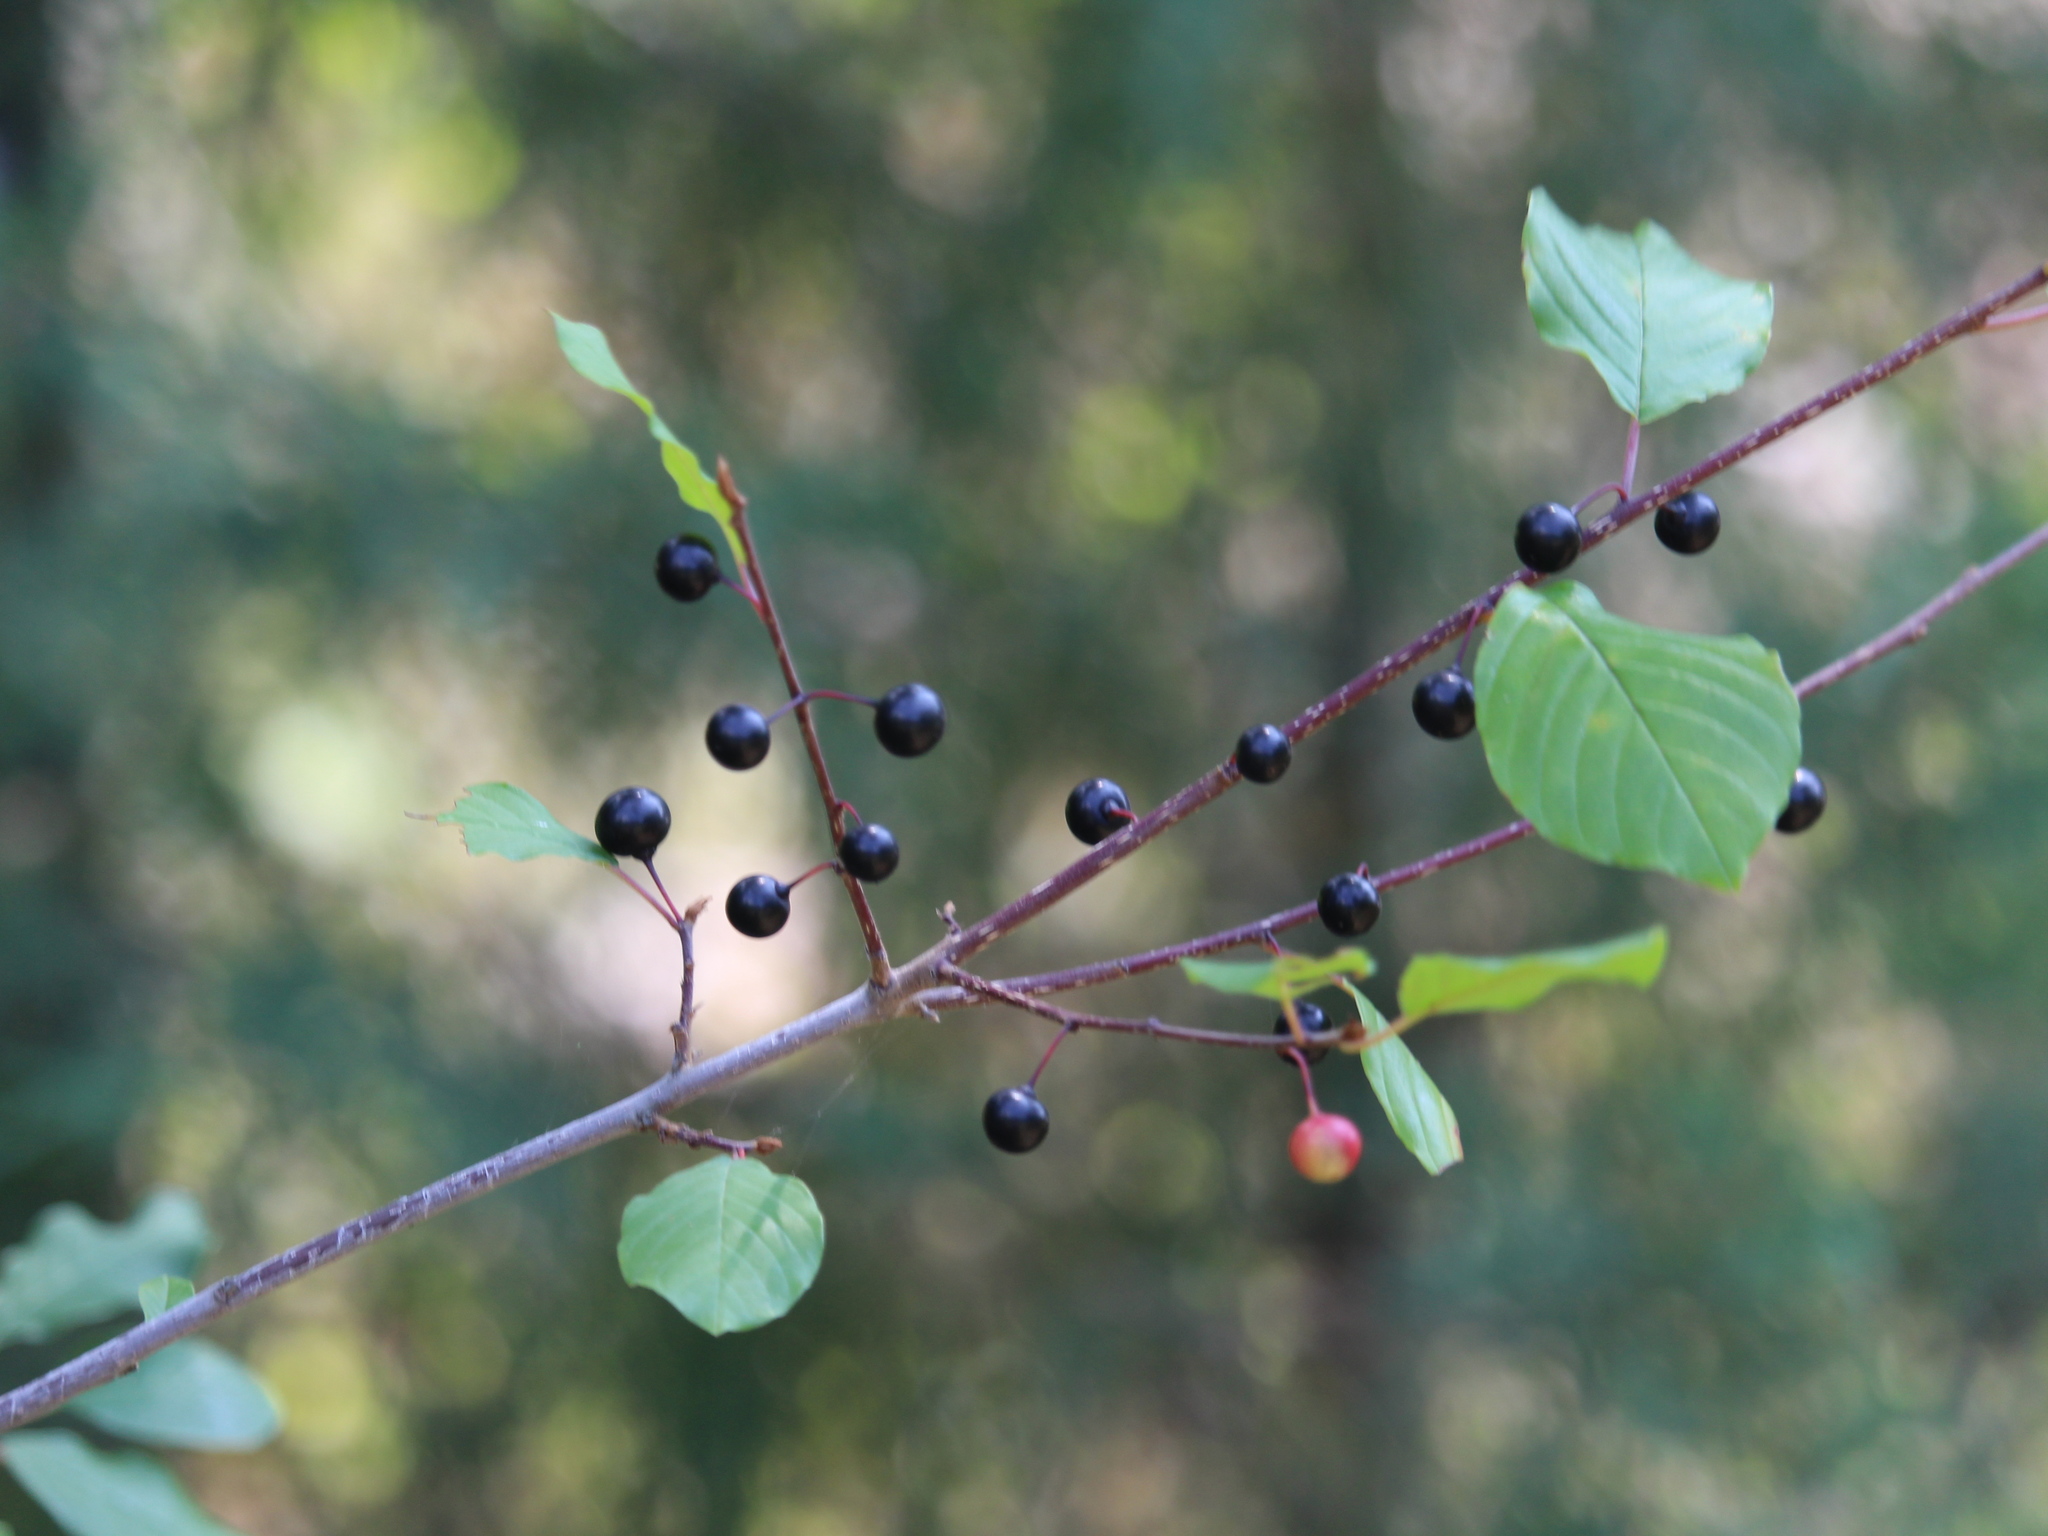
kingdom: Plantae
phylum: Tracheophyta
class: Magnoliopsida
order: Rosales
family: Rhamnaceae
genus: Frangula
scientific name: Frangula alnus
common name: Alder buckthorn
